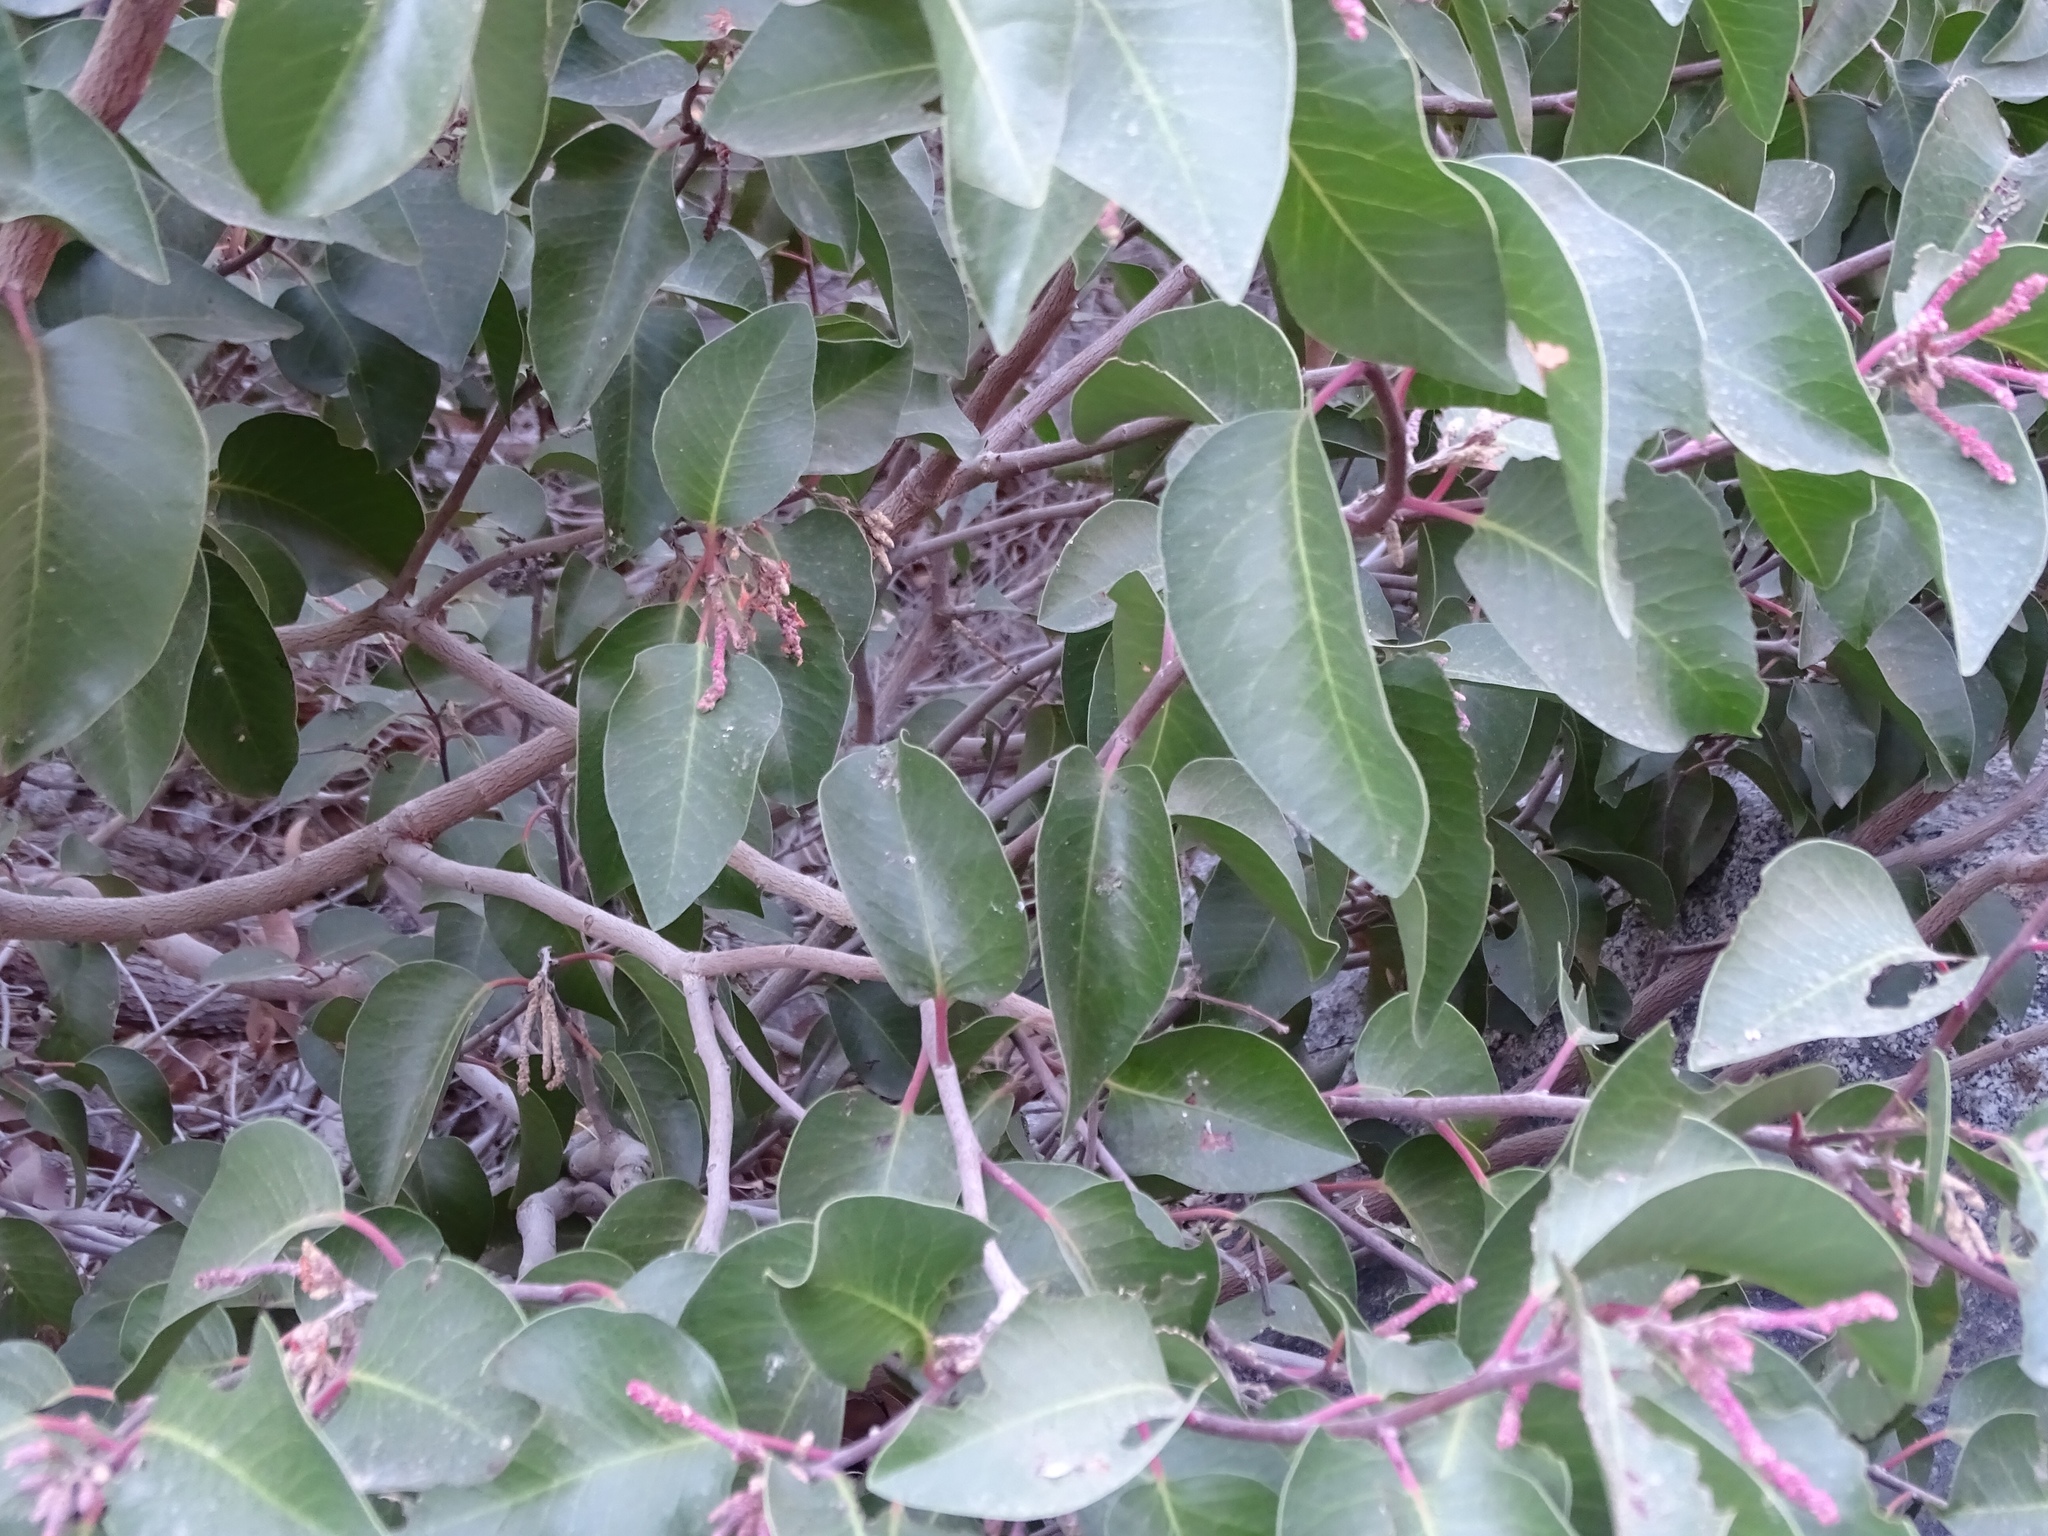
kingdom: Plantae
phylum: Tracheophyta
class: Magnoliopsida
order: Sapindales
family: Anacardiaceae
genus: Rhus
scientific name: Rhus ovata
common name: Sugar sumac
